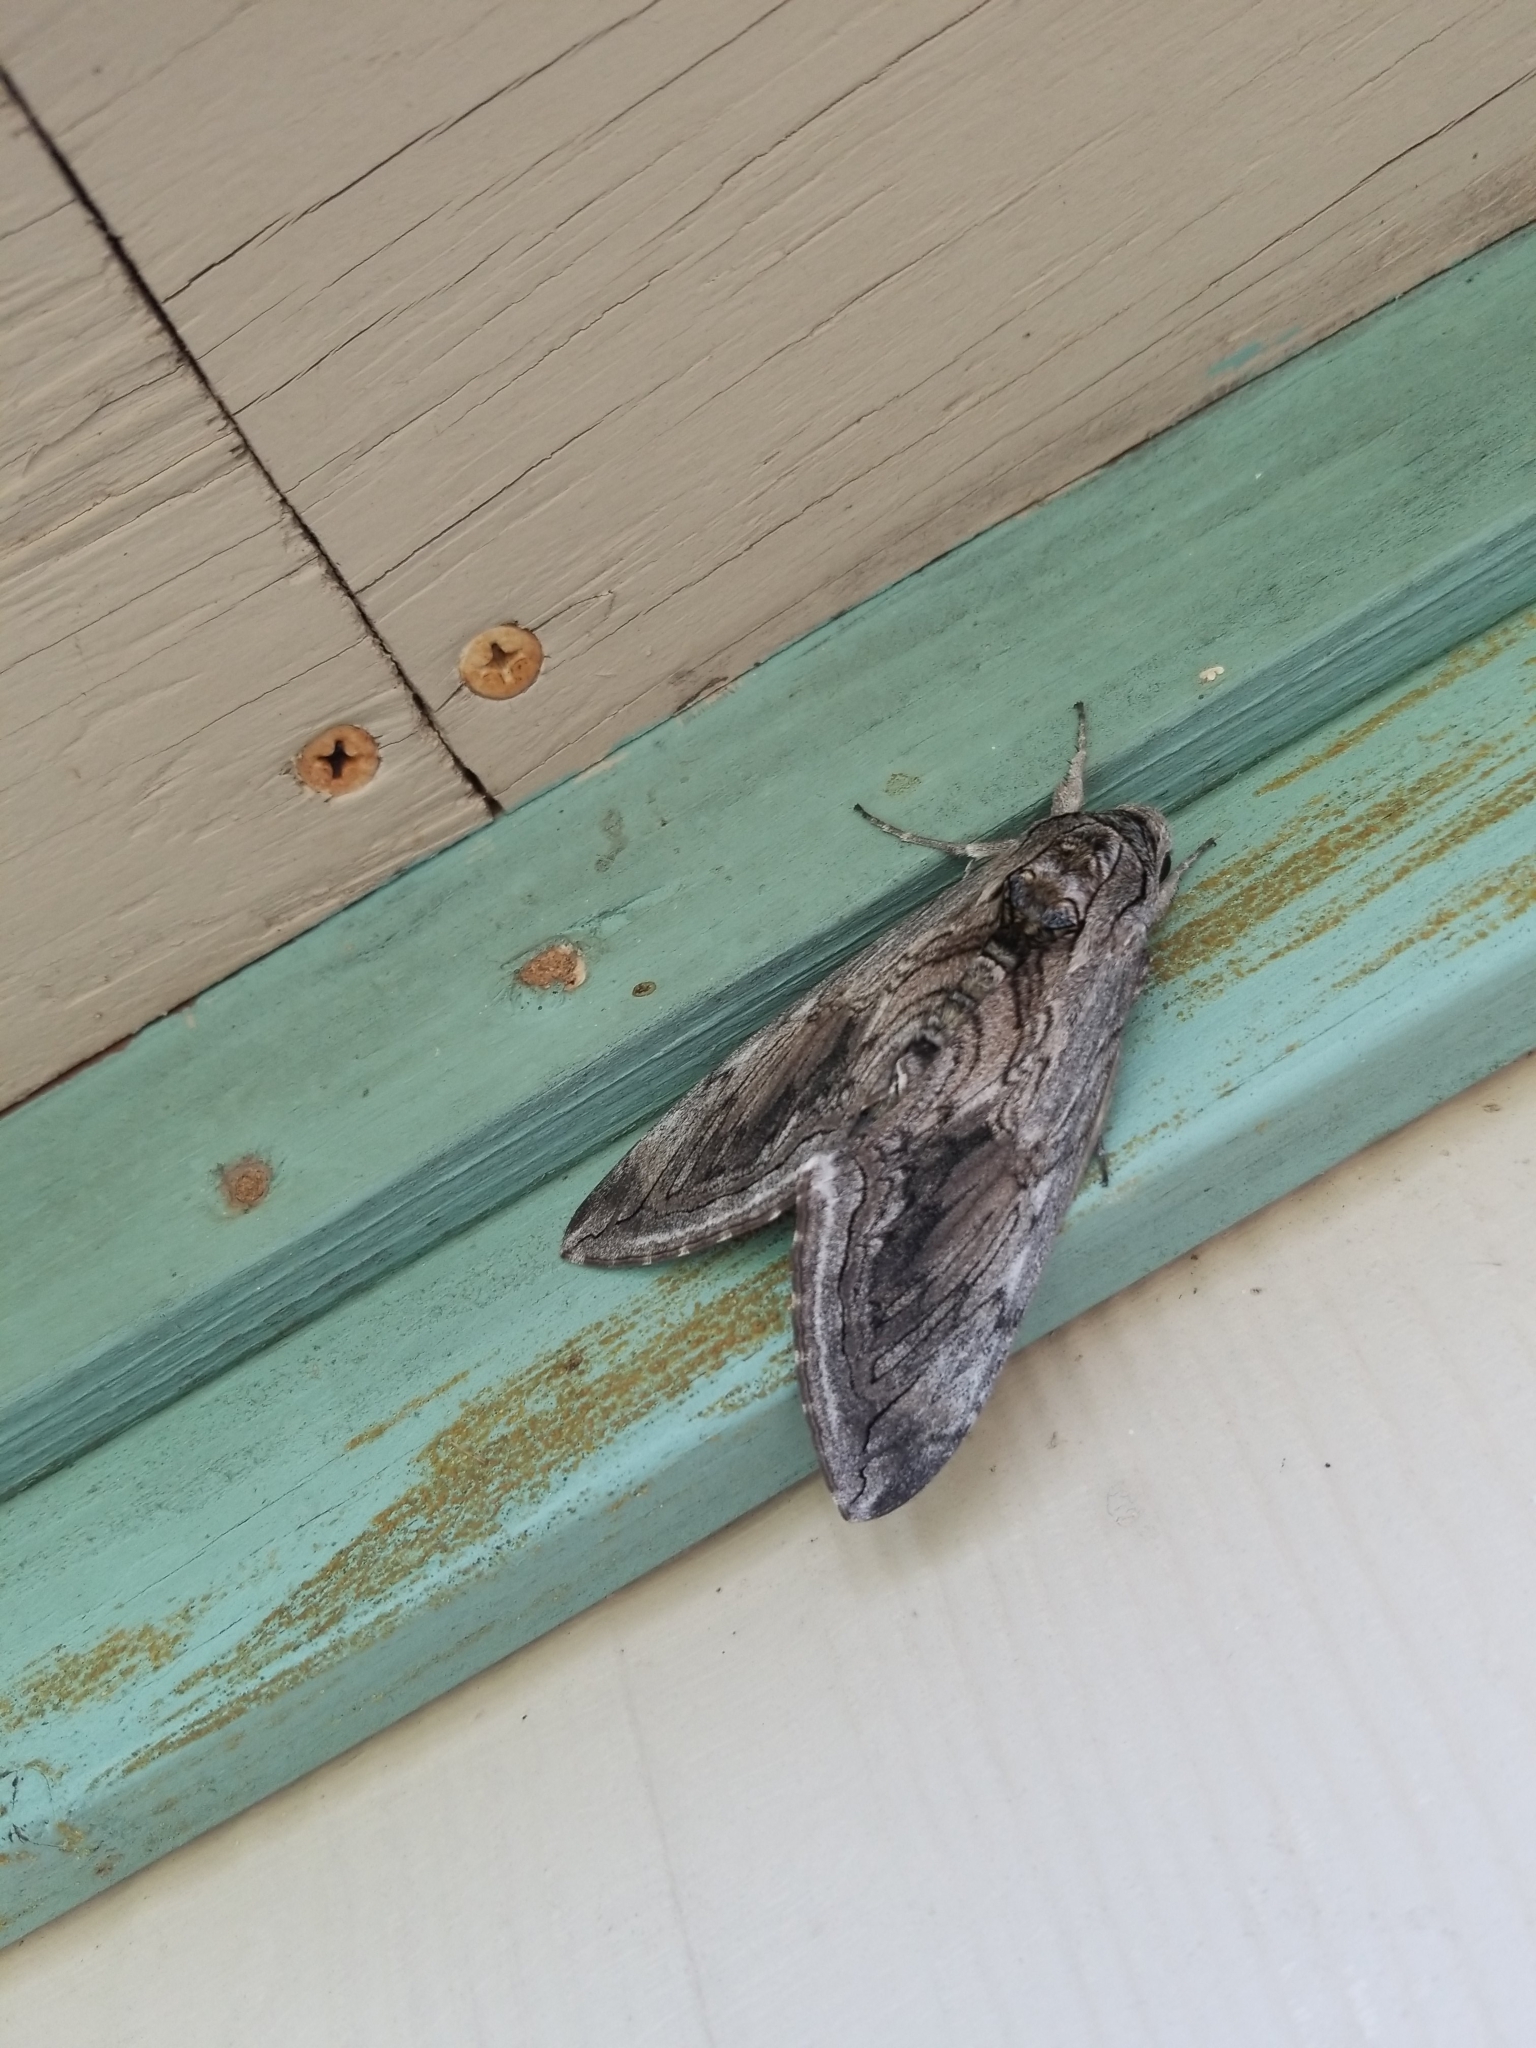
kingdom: Animalia
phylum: Arthropoda
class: Insecta
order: Lepidoptera
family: Sphingidae
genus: Manduca
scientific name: Manduca quinquemaculatus
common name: Five-spotted hawk-moth
